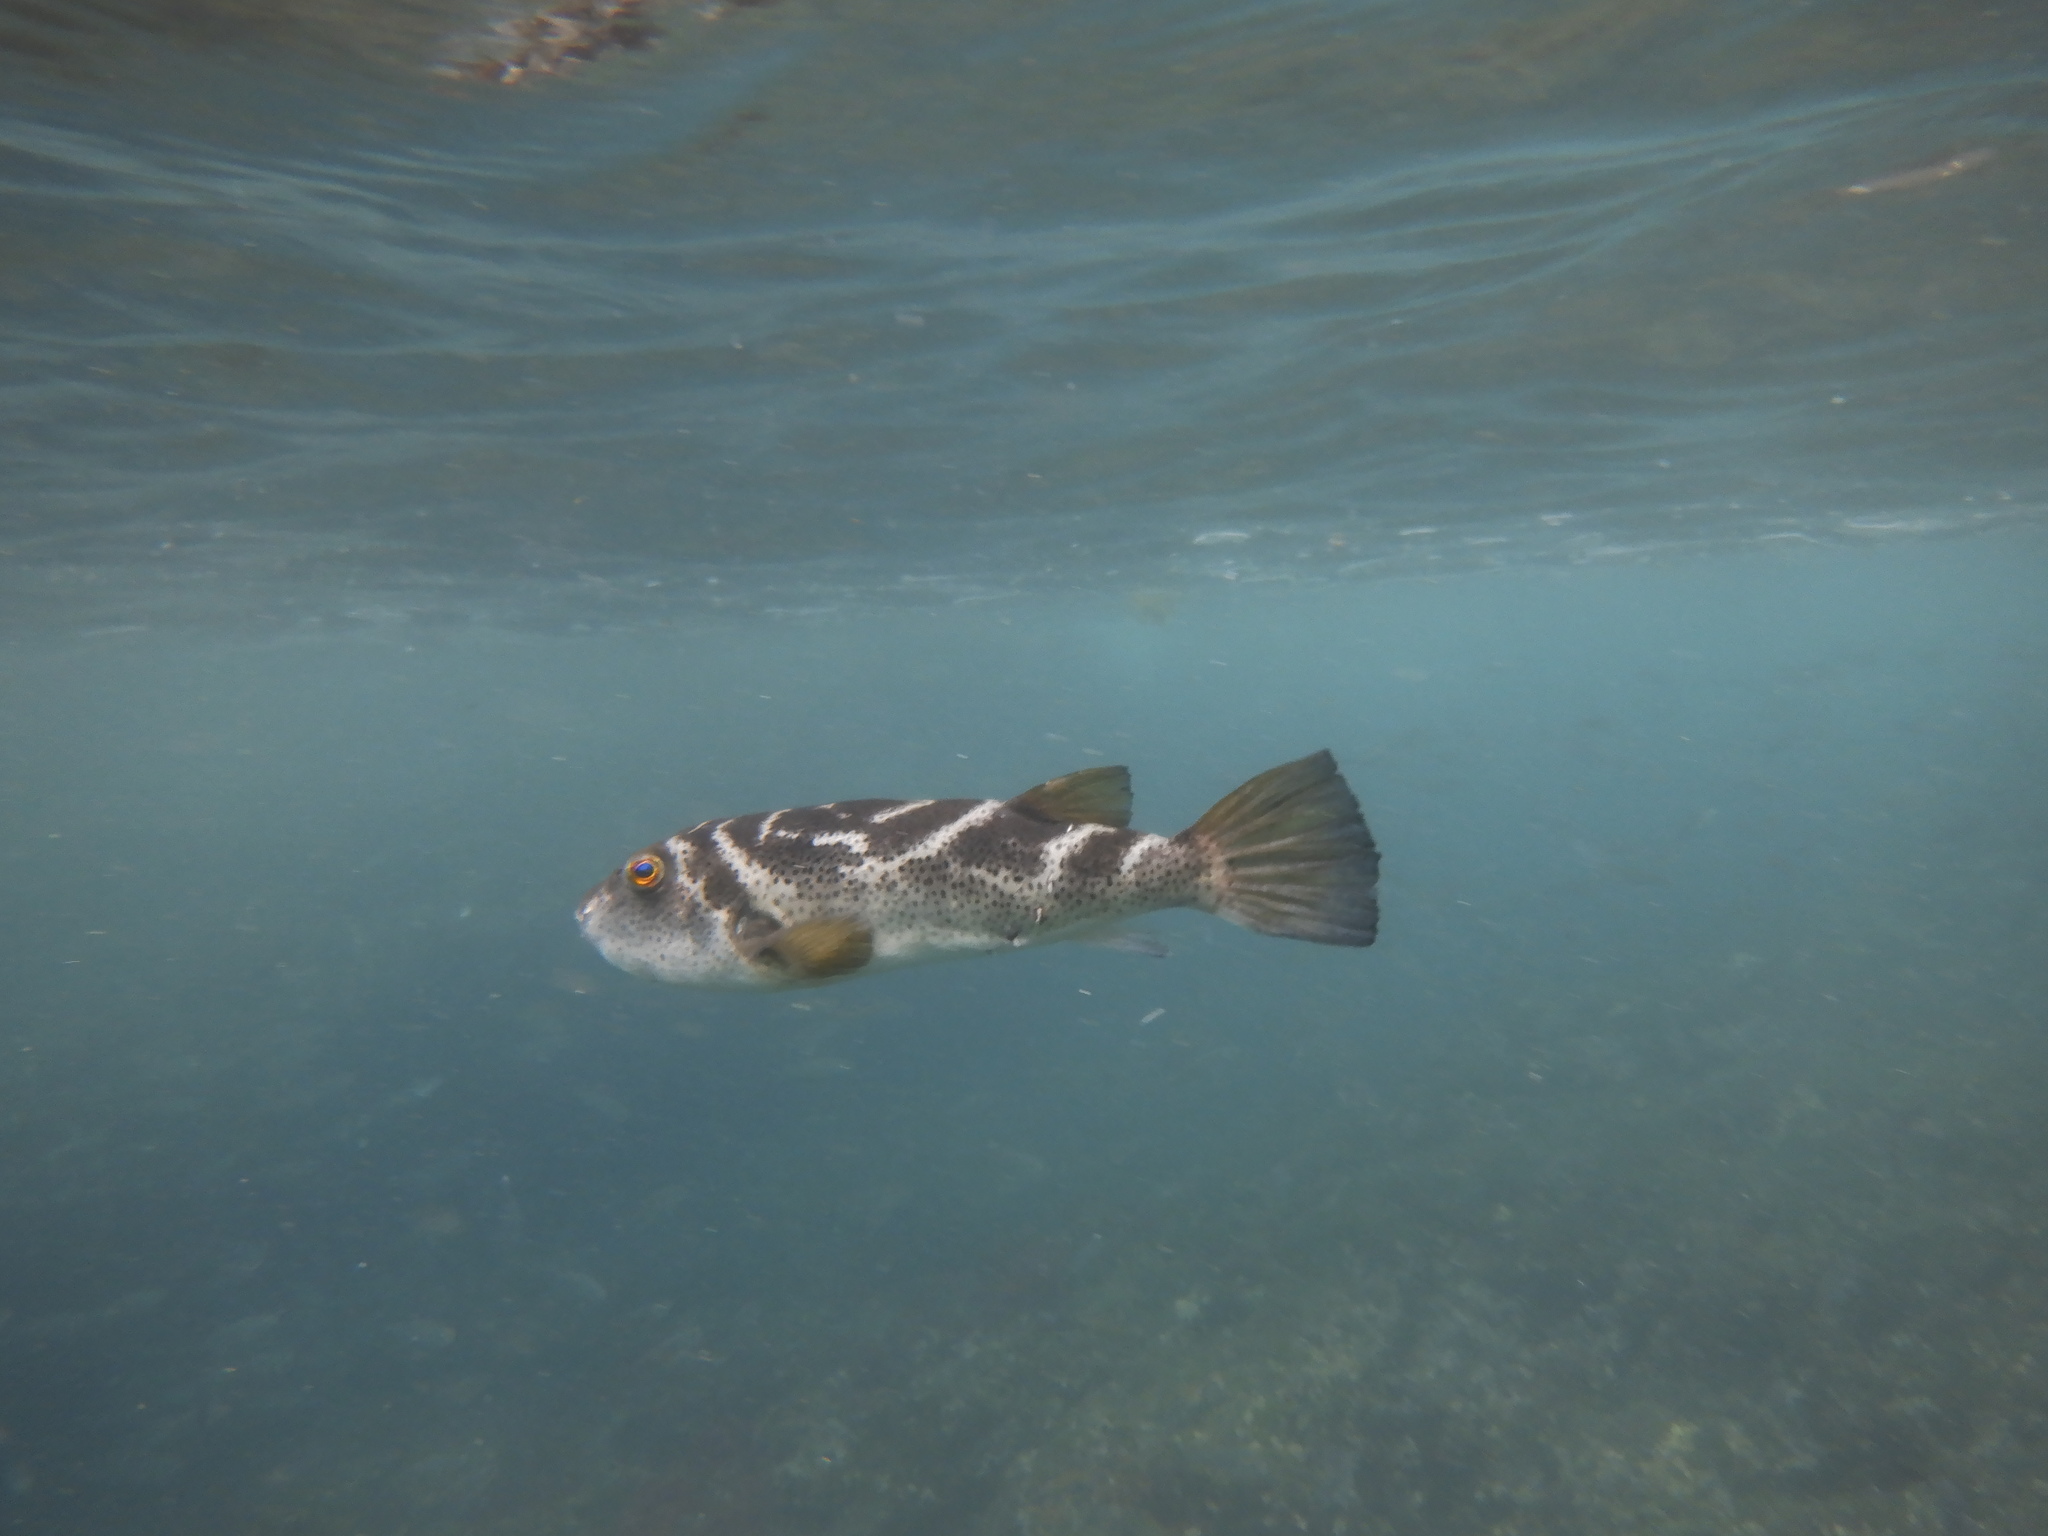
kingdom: Animalia
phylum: Chordata
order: Tetraodontiformes
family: Tetraodontidae
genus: Sphoeroides
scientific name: Sphoeroides annulatus
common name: Bullseye puffer
